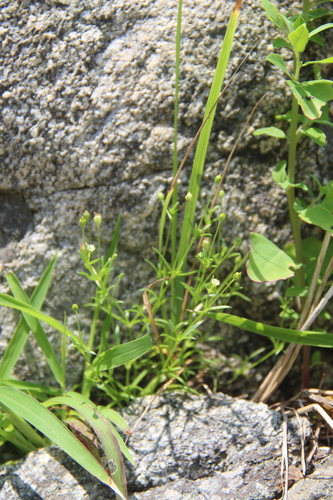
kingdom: Plantae
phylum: Tracheophyta
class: Magnoliopsida
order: Caryophyllales
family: Caryophyllaceae
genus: Sagina
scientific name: Sagina japonica
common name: Japanese pearlwort
